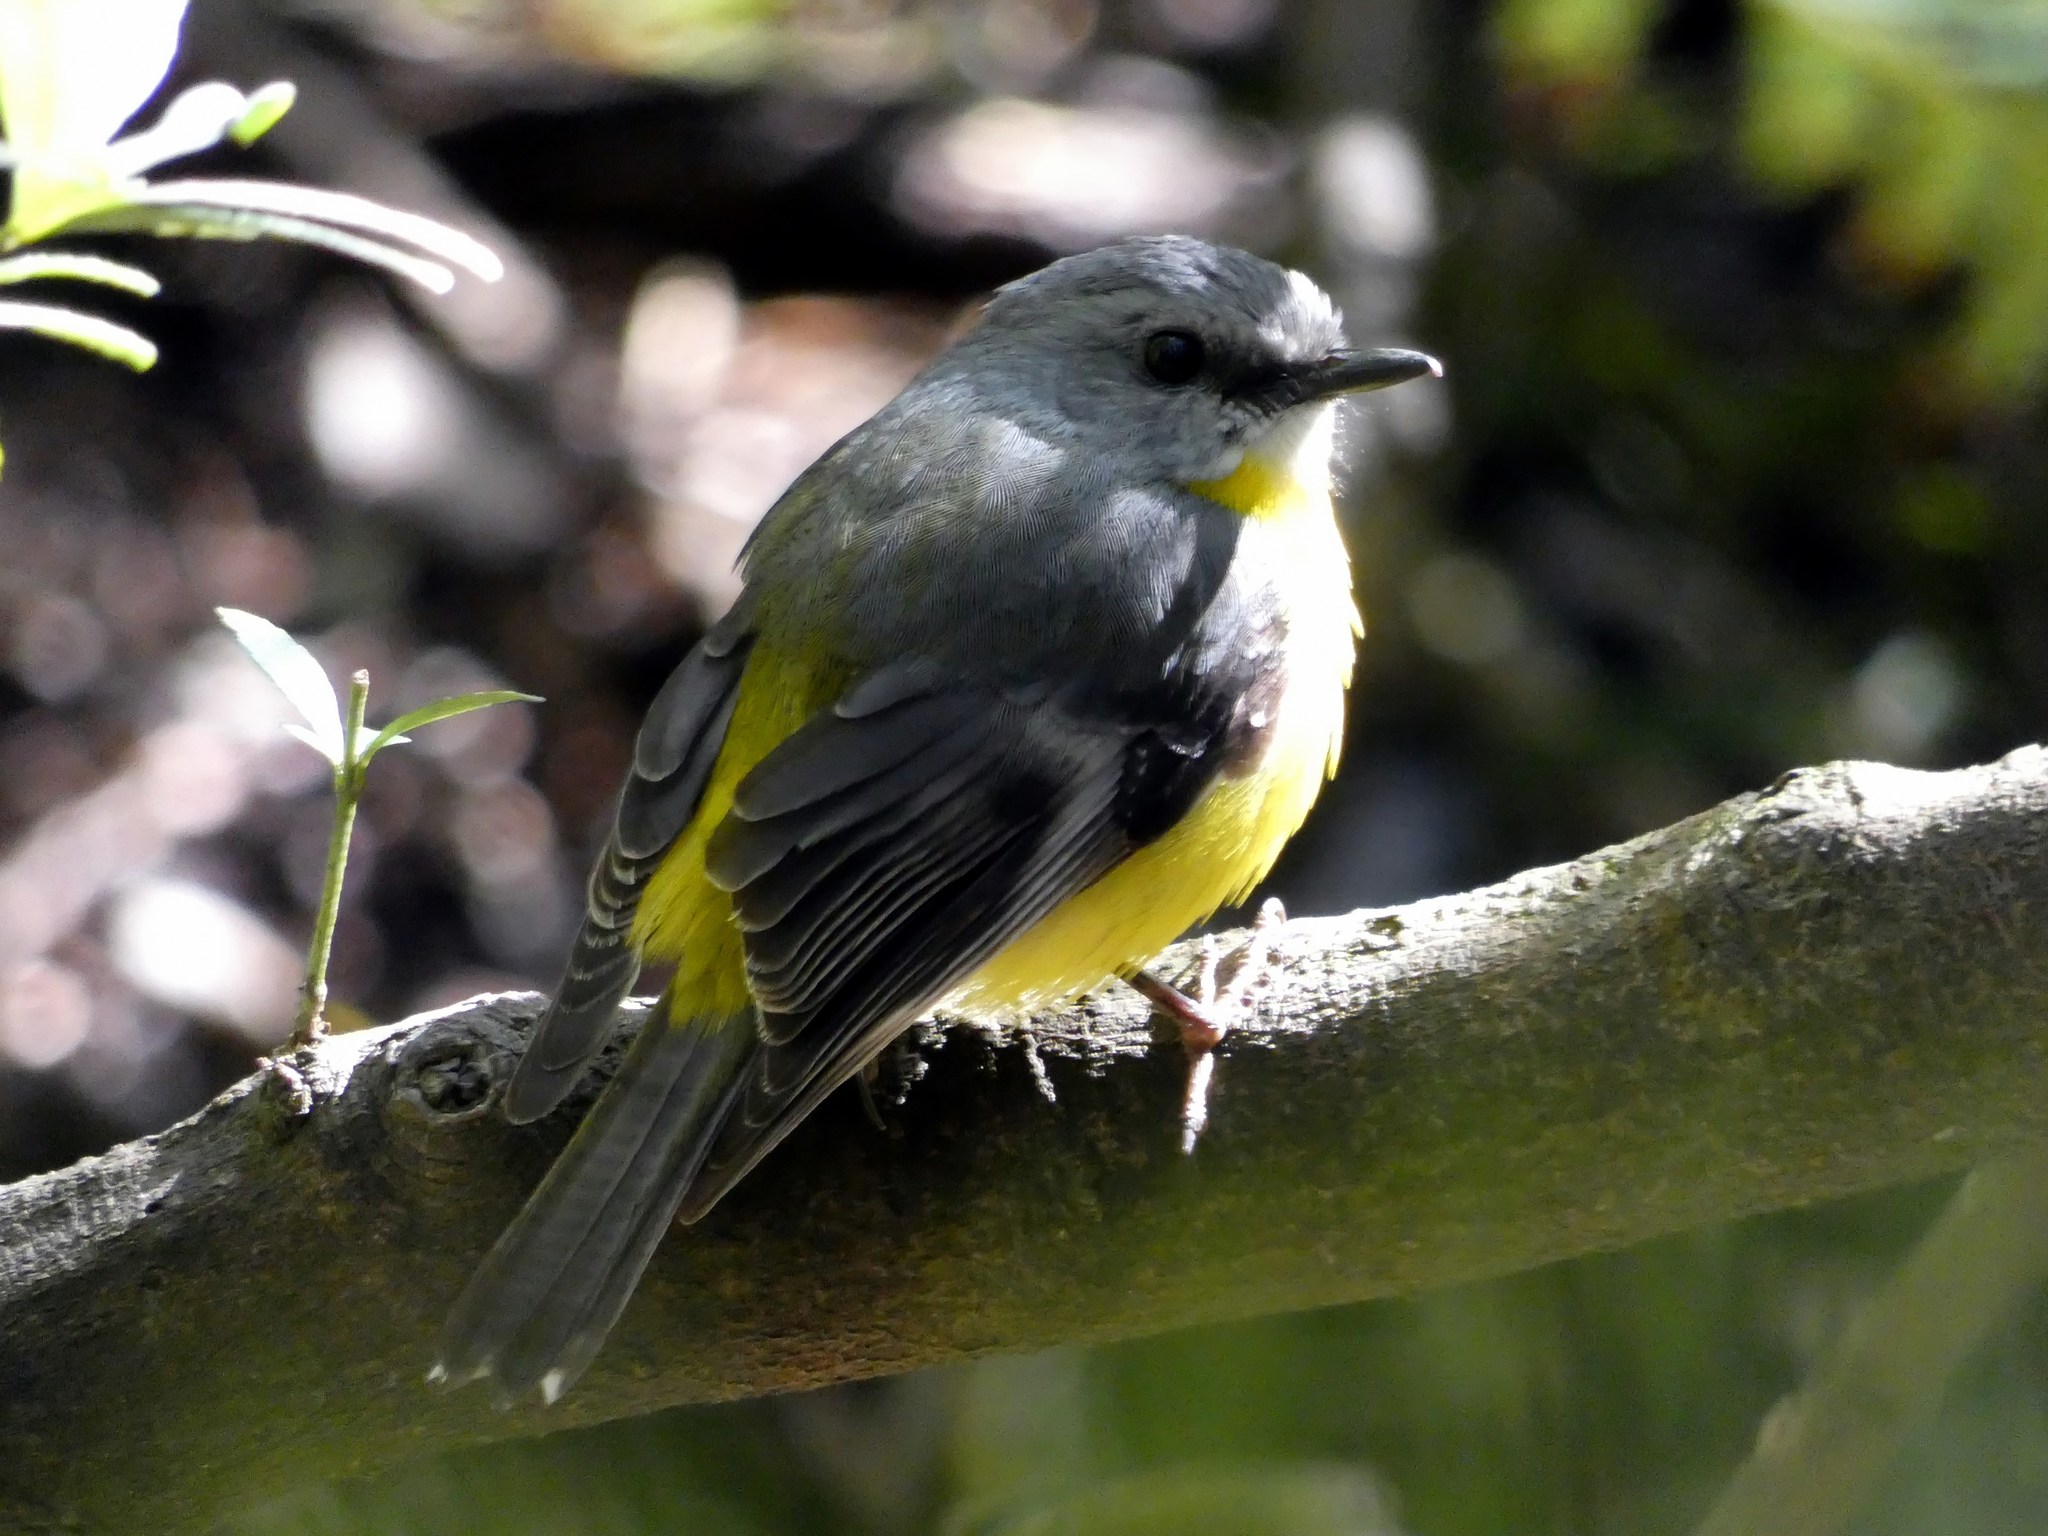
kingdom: Animalia
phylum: Chordata
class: Aves
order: Passeriformes
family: Petroicidae
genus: Eopsaltria
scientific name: Eopsaltria australis
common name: Eastern yellow robin
